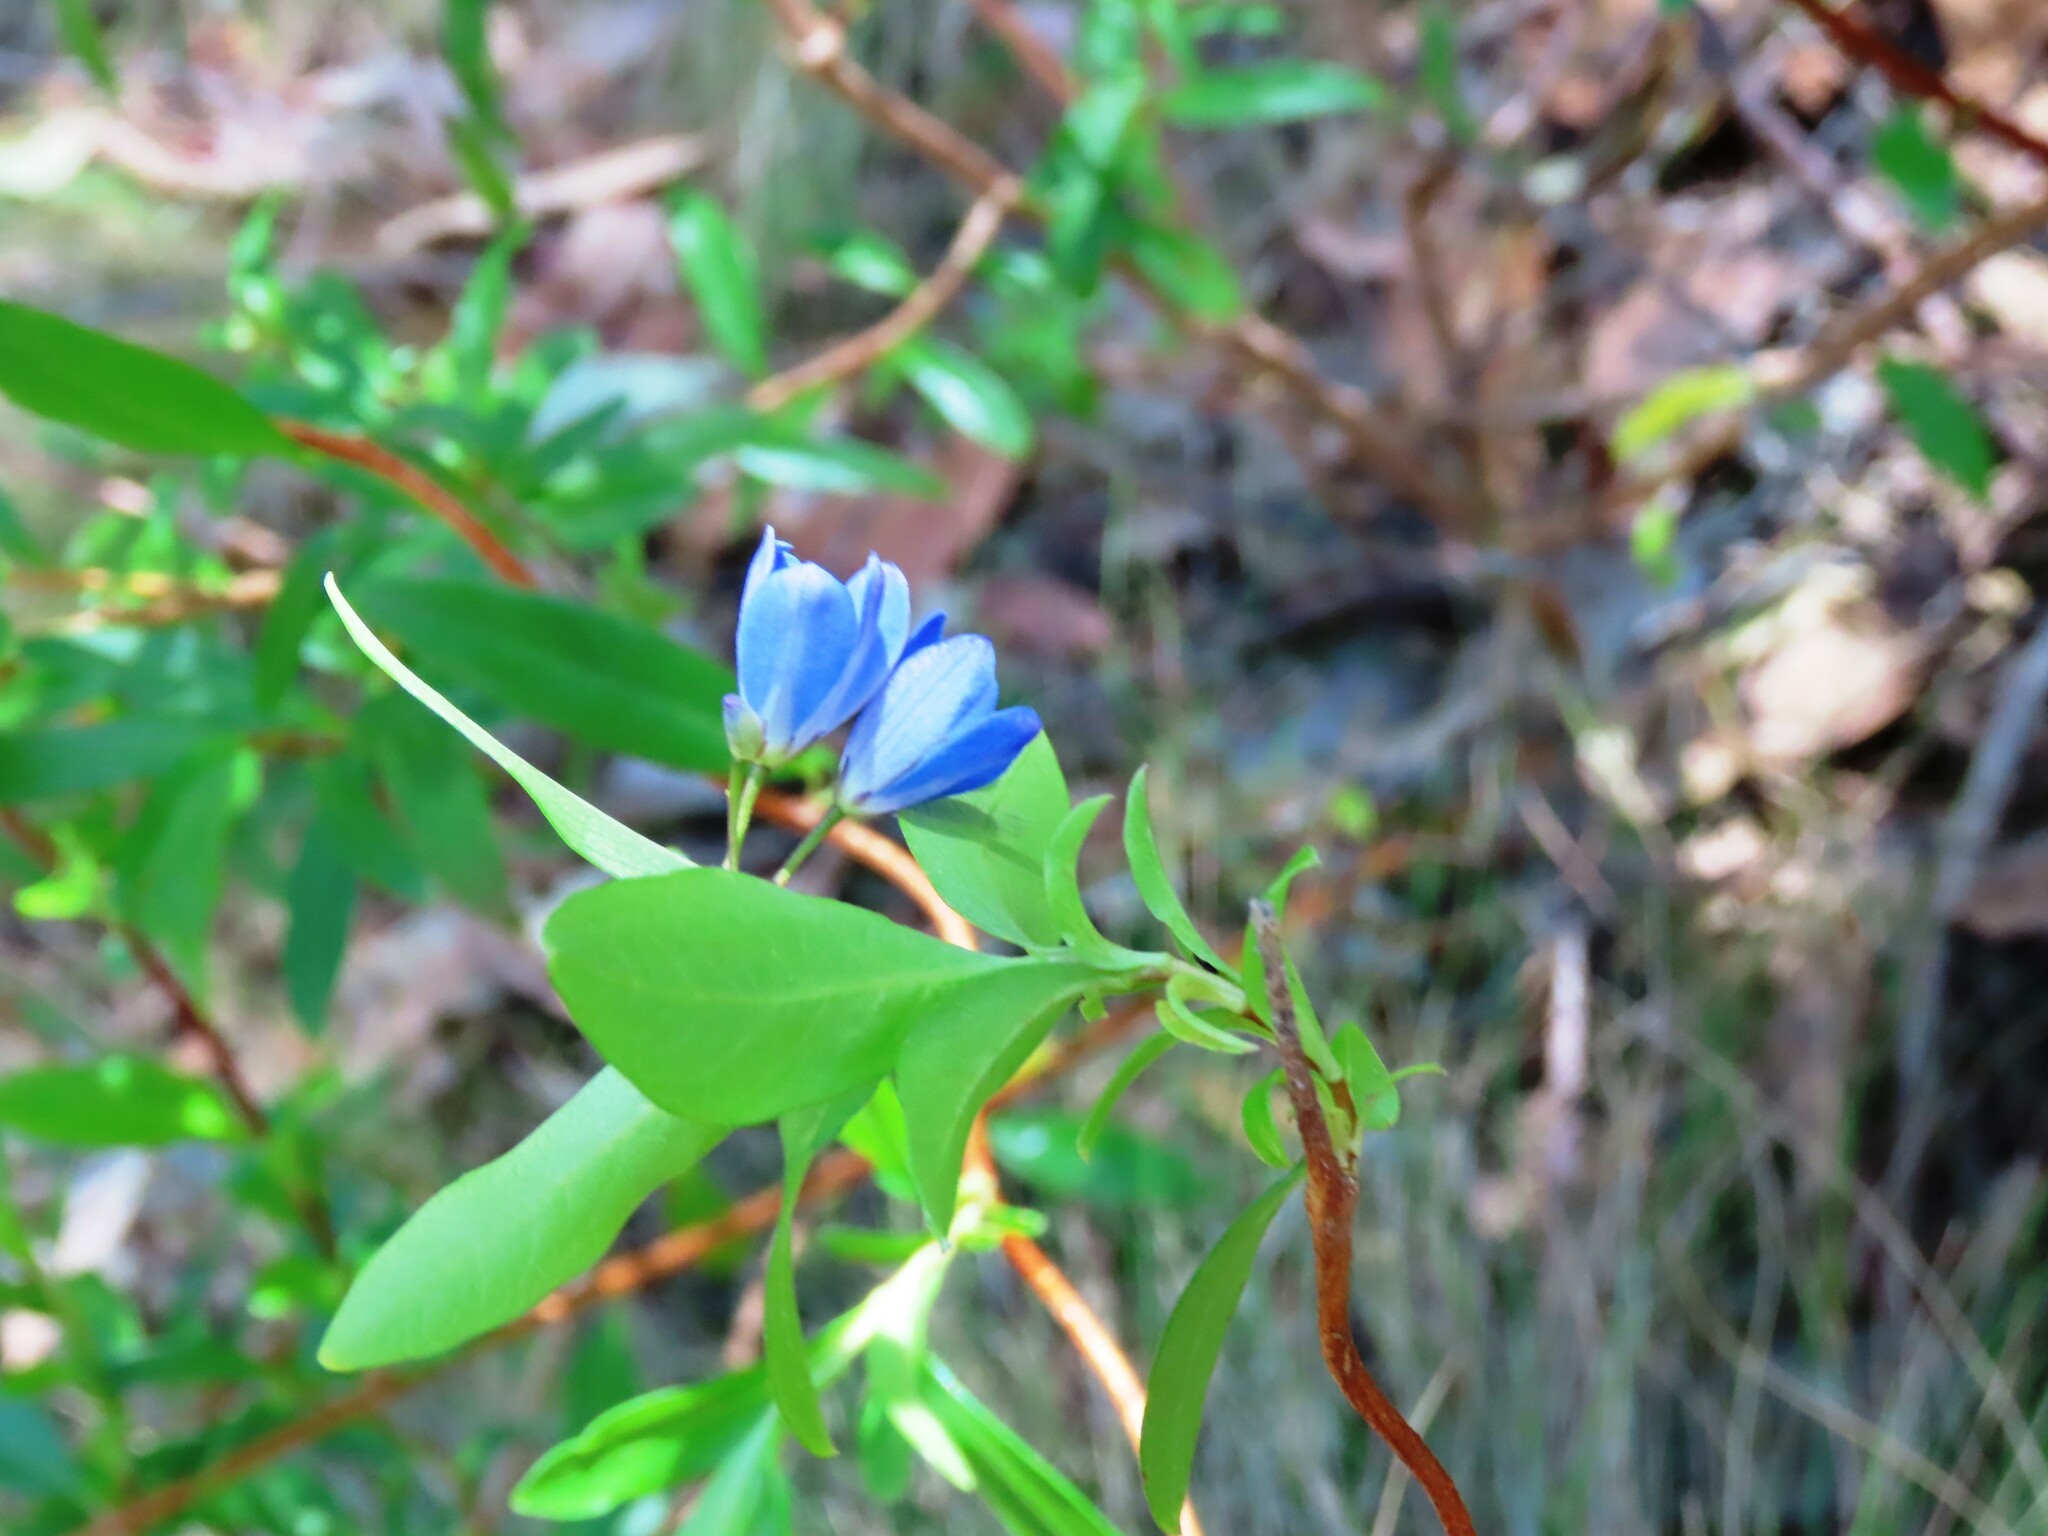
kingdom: Plantae
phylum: Tracheophyta
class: Magnoliopsida
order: Apiales
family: Pittosporaceae
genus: Billardiera
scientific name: Billardiera fusiformis
